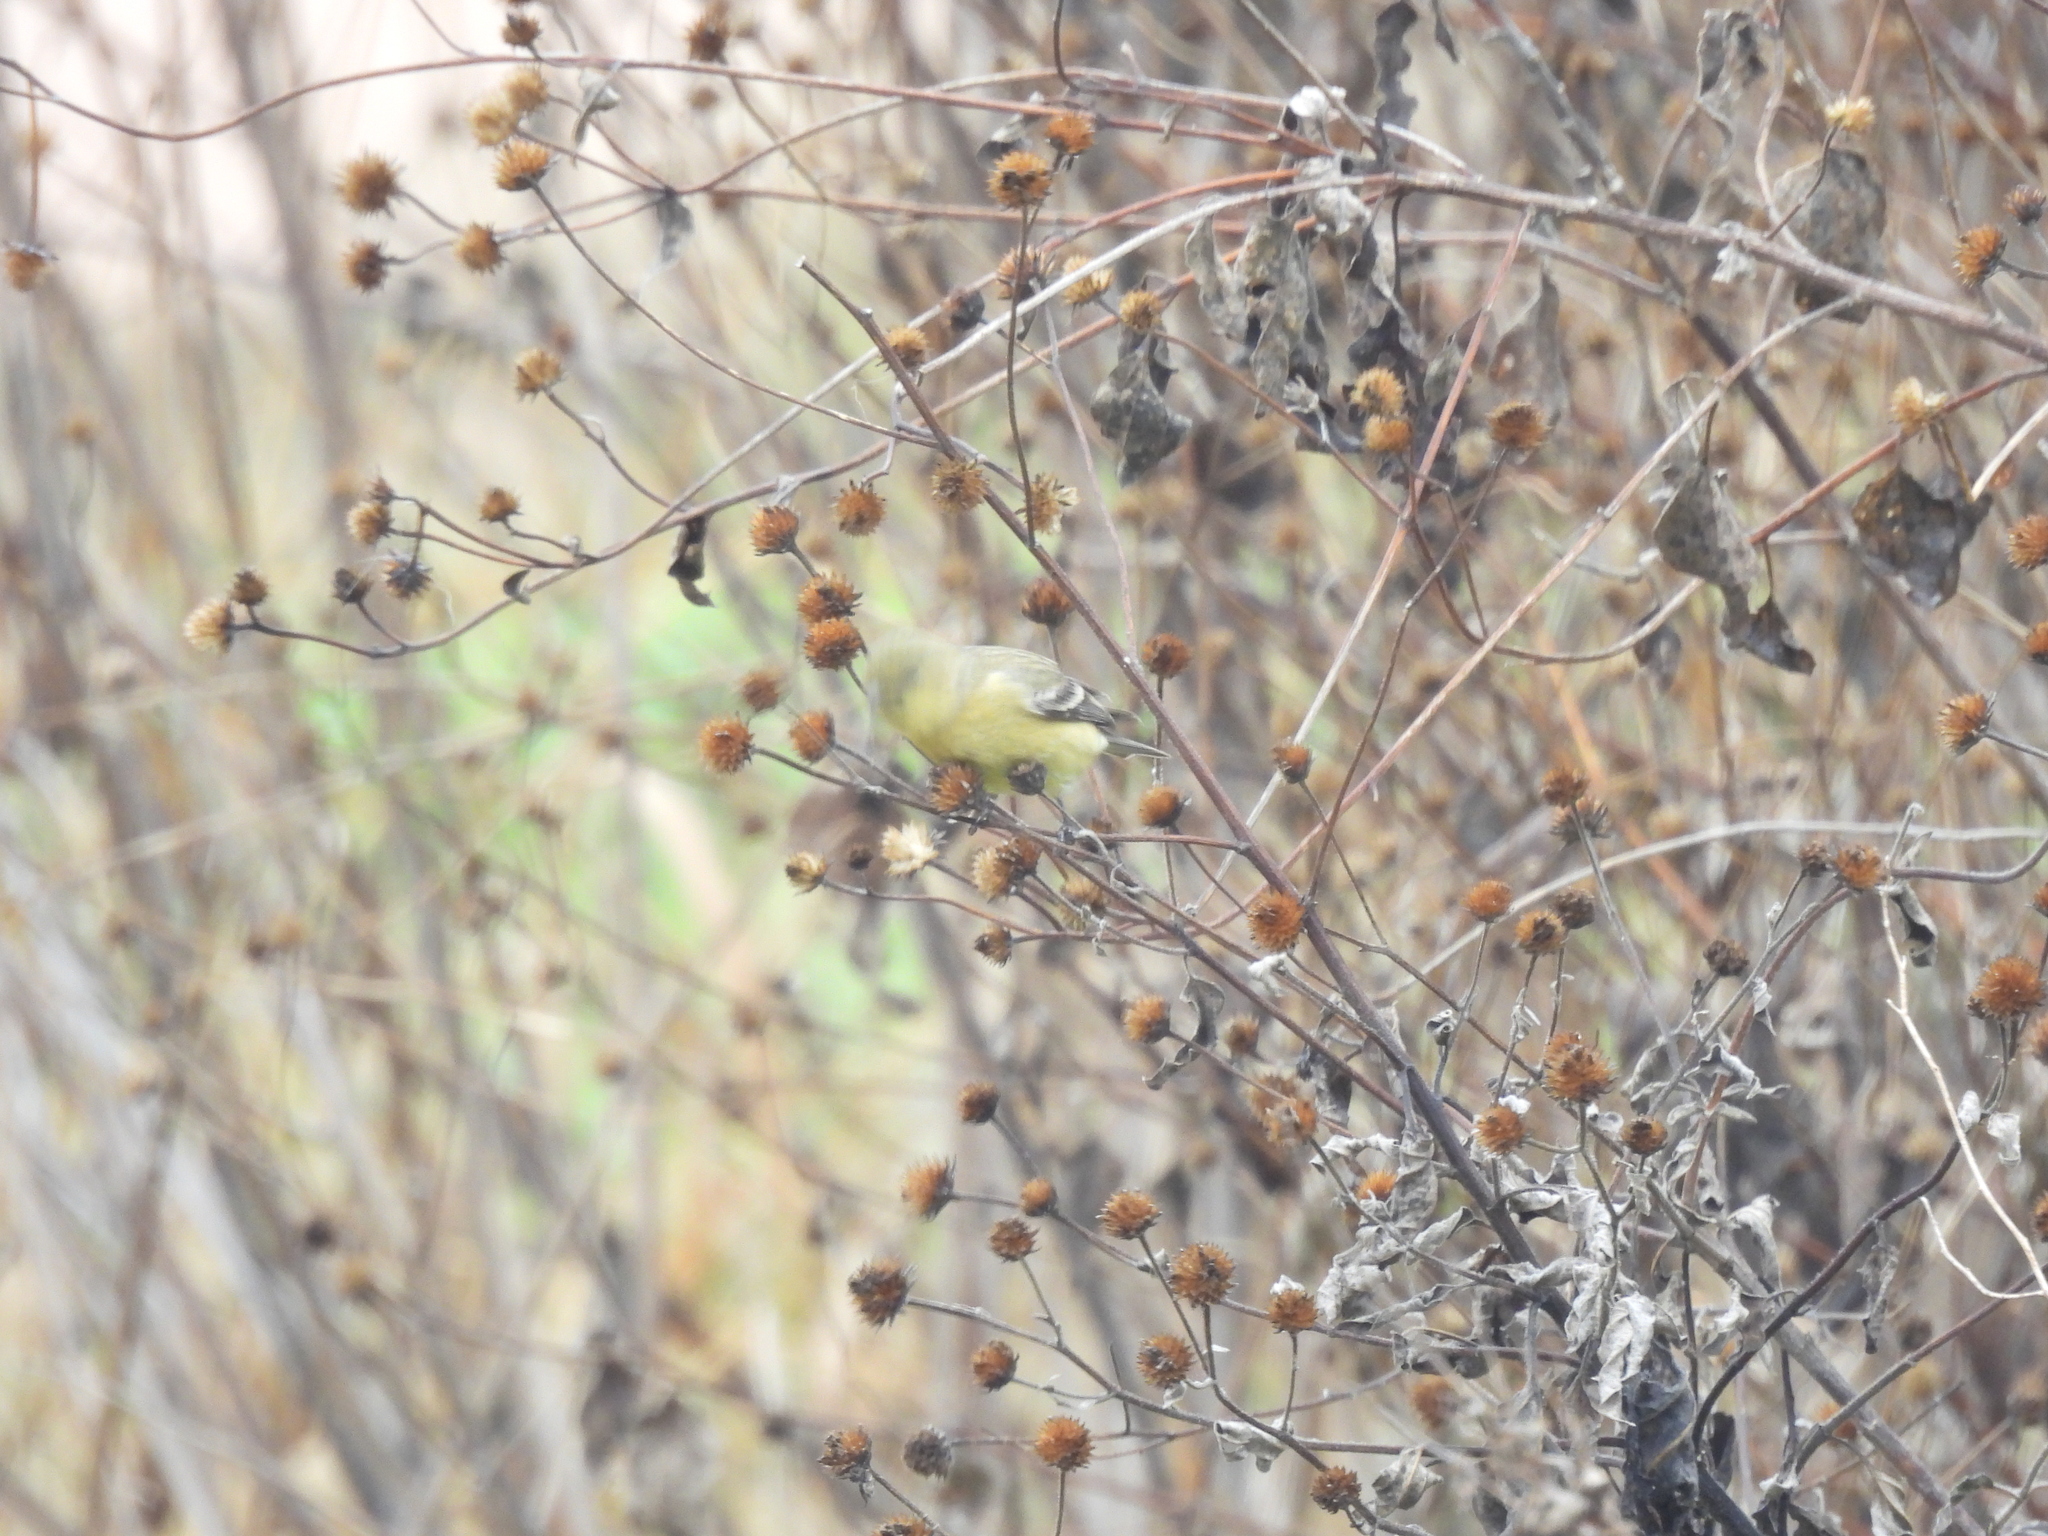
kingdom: Animalia
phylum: Chordata
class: Aves
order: Passeriformes
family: Fringillidae
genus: Spinus
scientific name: Spinus psaltria
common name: Lesser goldfinch
